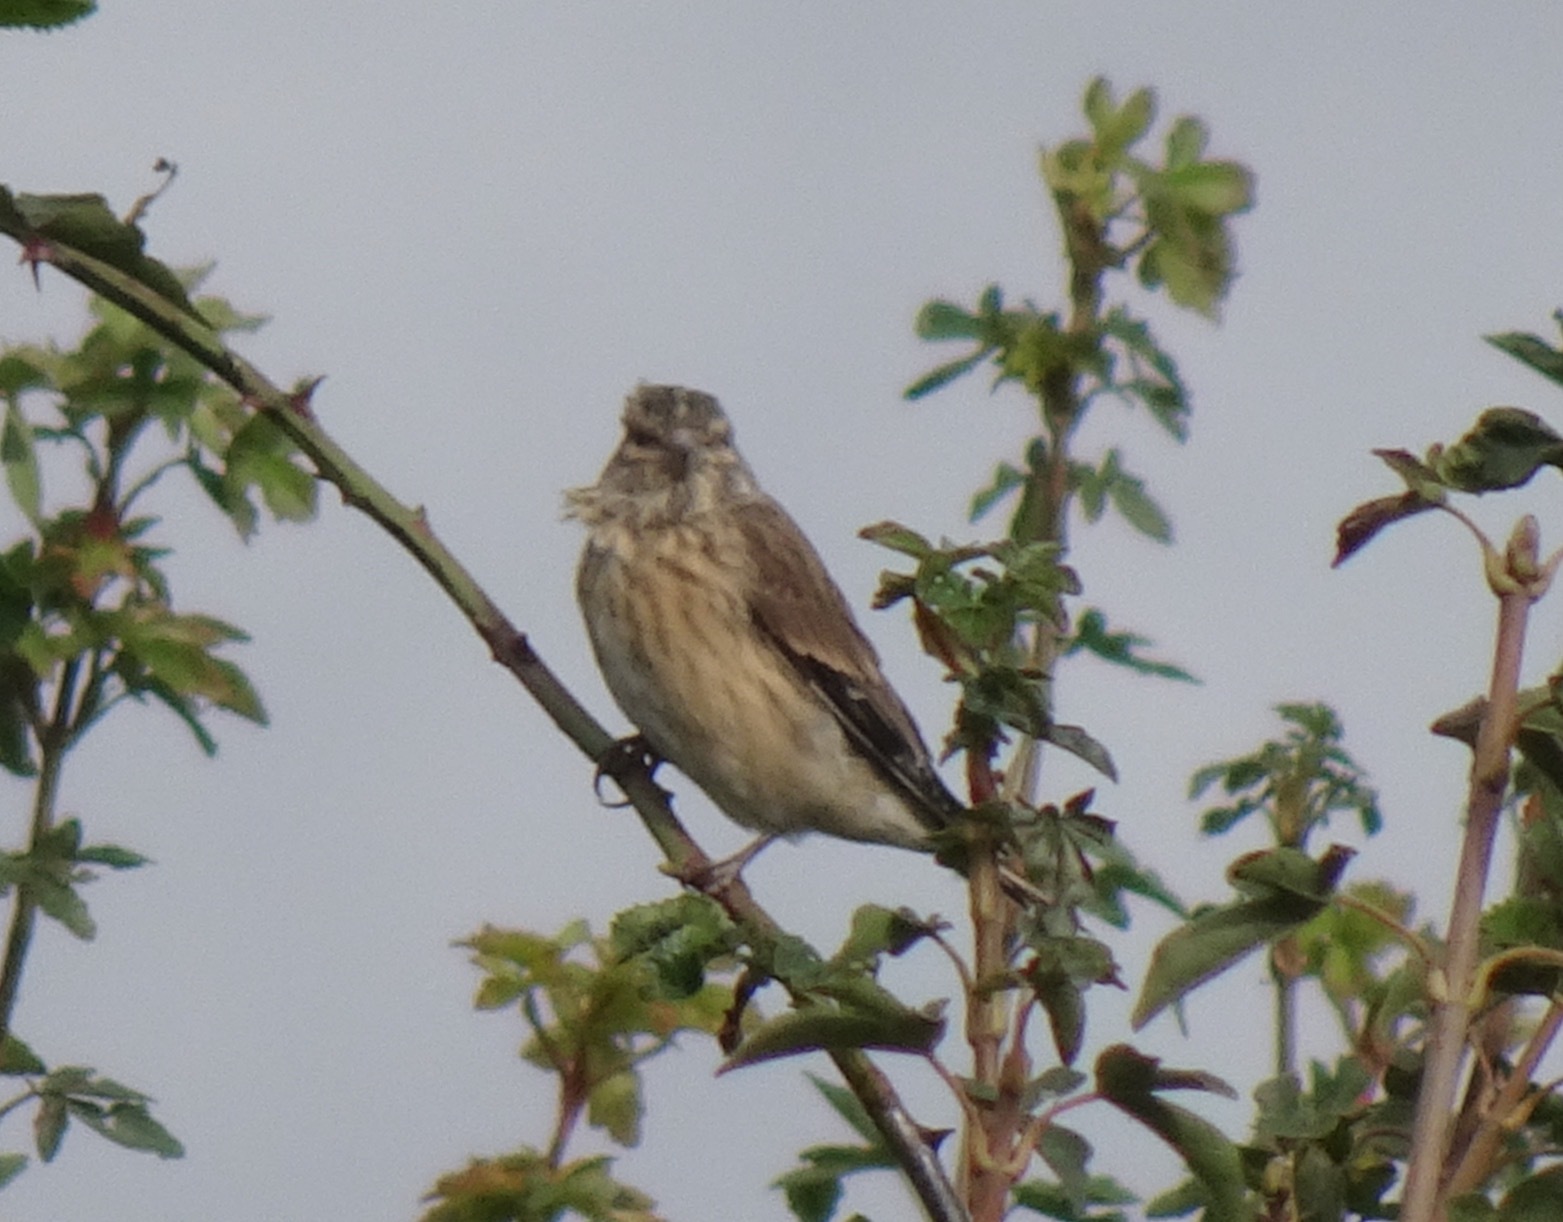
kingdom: Animalia
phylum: Chordata
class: Aves
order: Passeriformes
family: Fringillidae
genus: Linaria
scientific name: Linaria cannabina
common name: Common linnet
